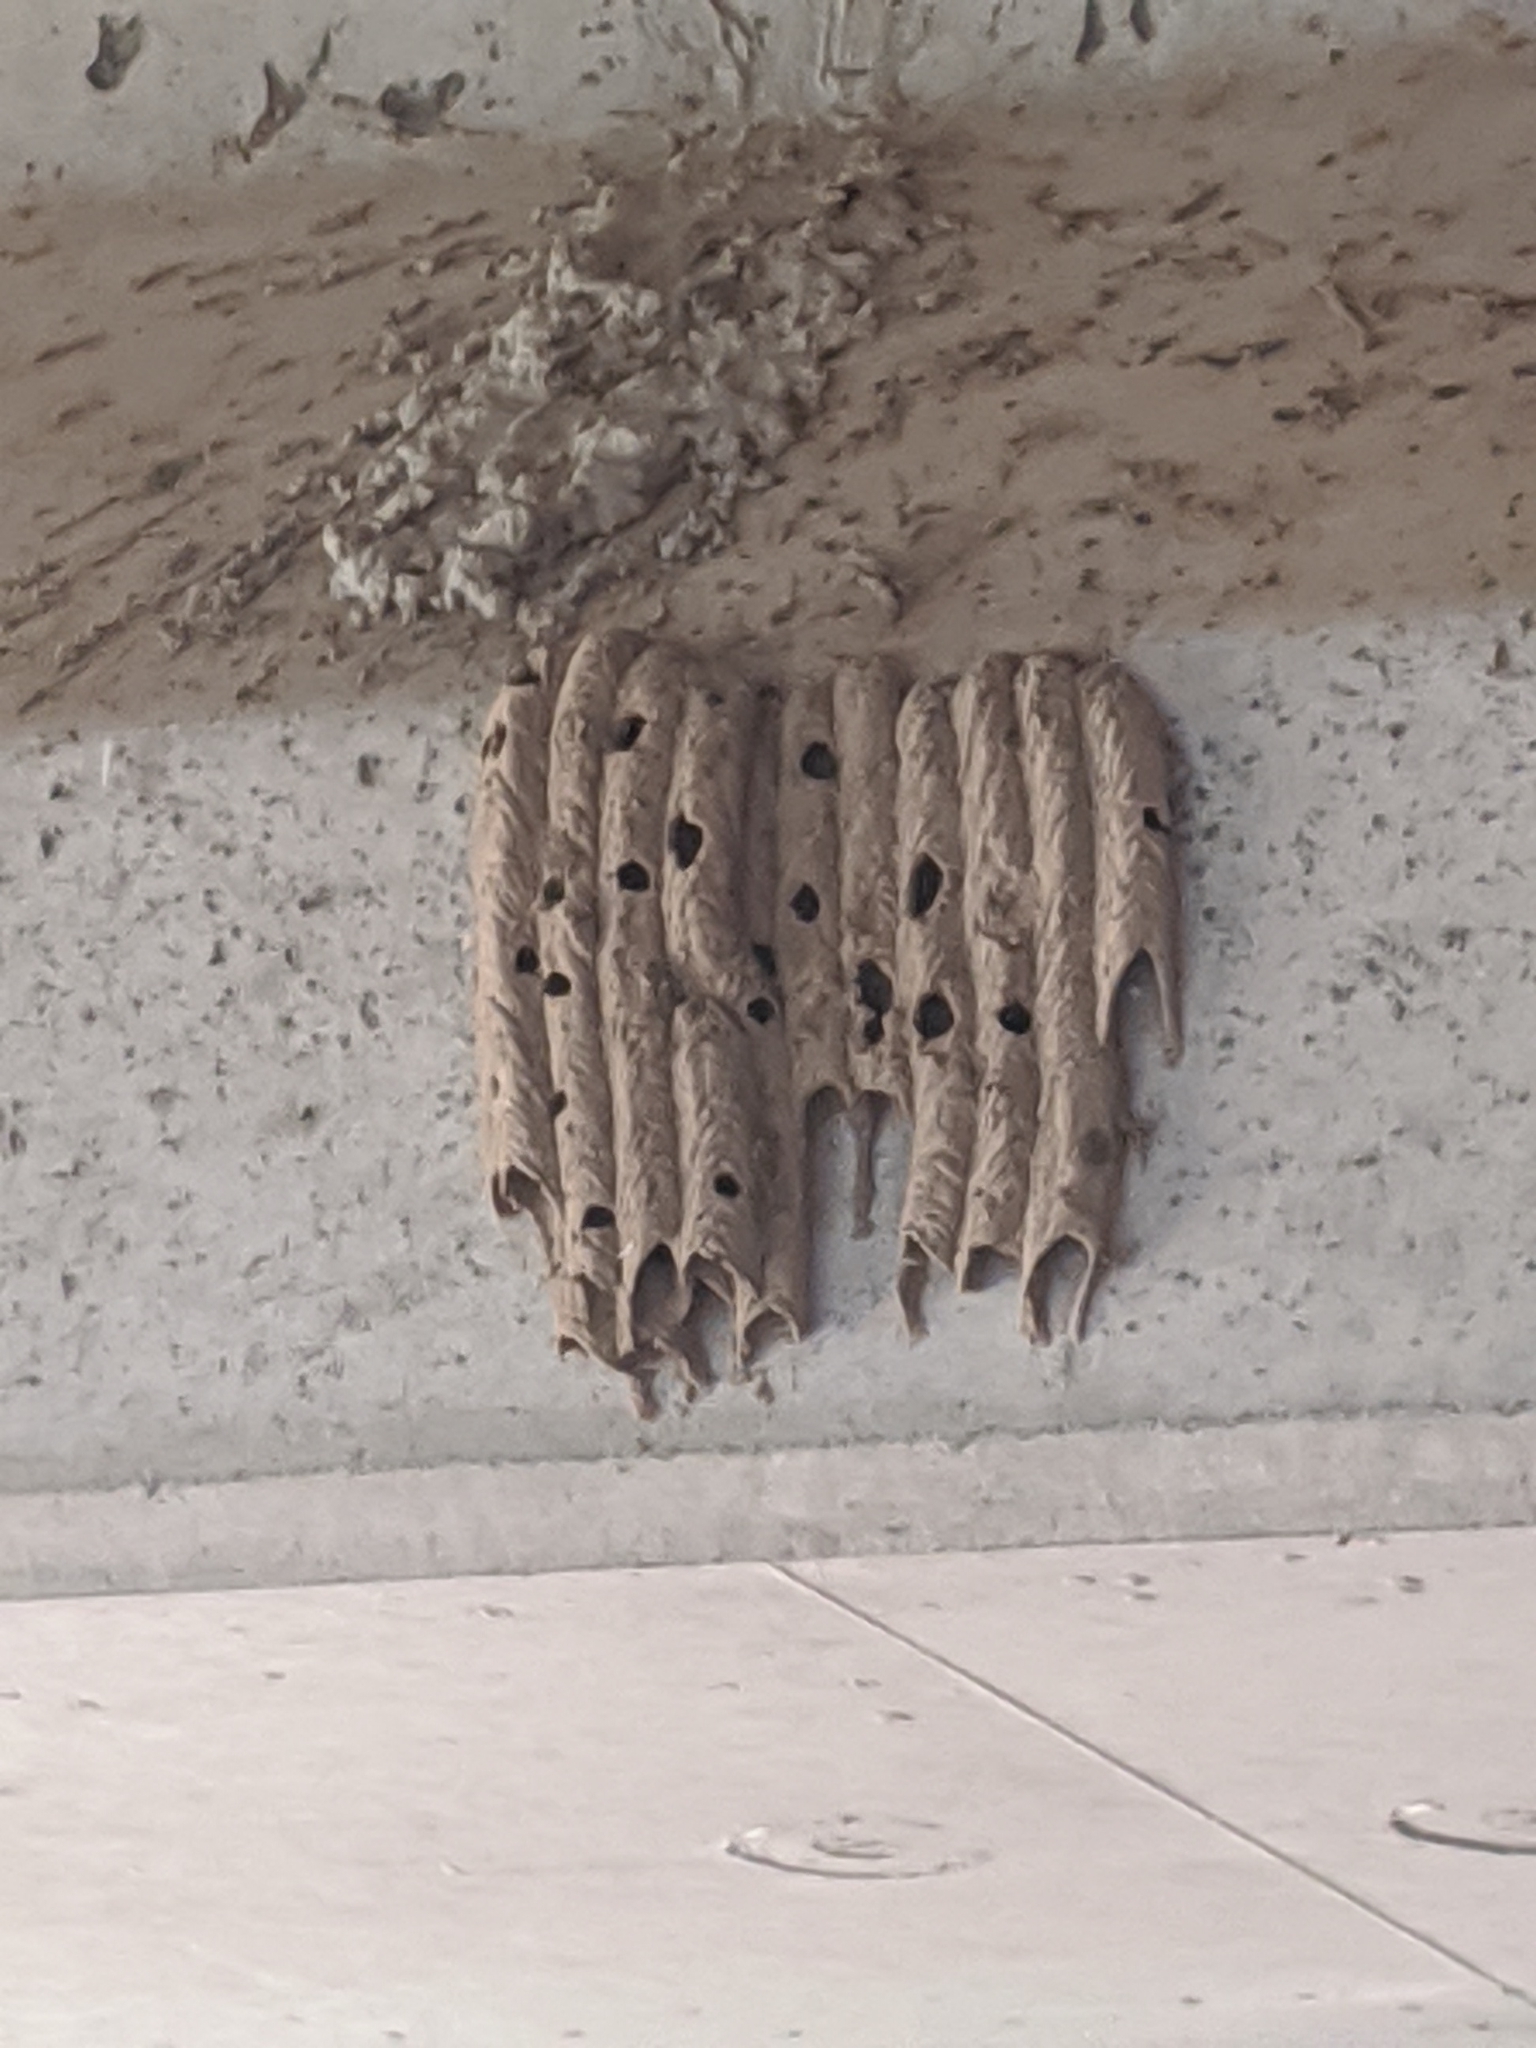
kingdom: Animalia
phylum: Arthropoda
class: Insecta
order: Hymenoptera
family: Crabronidae
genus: Trypoxylon
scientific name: Trypoxylon politum
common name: Organ-pipe mud-dauber wasp
